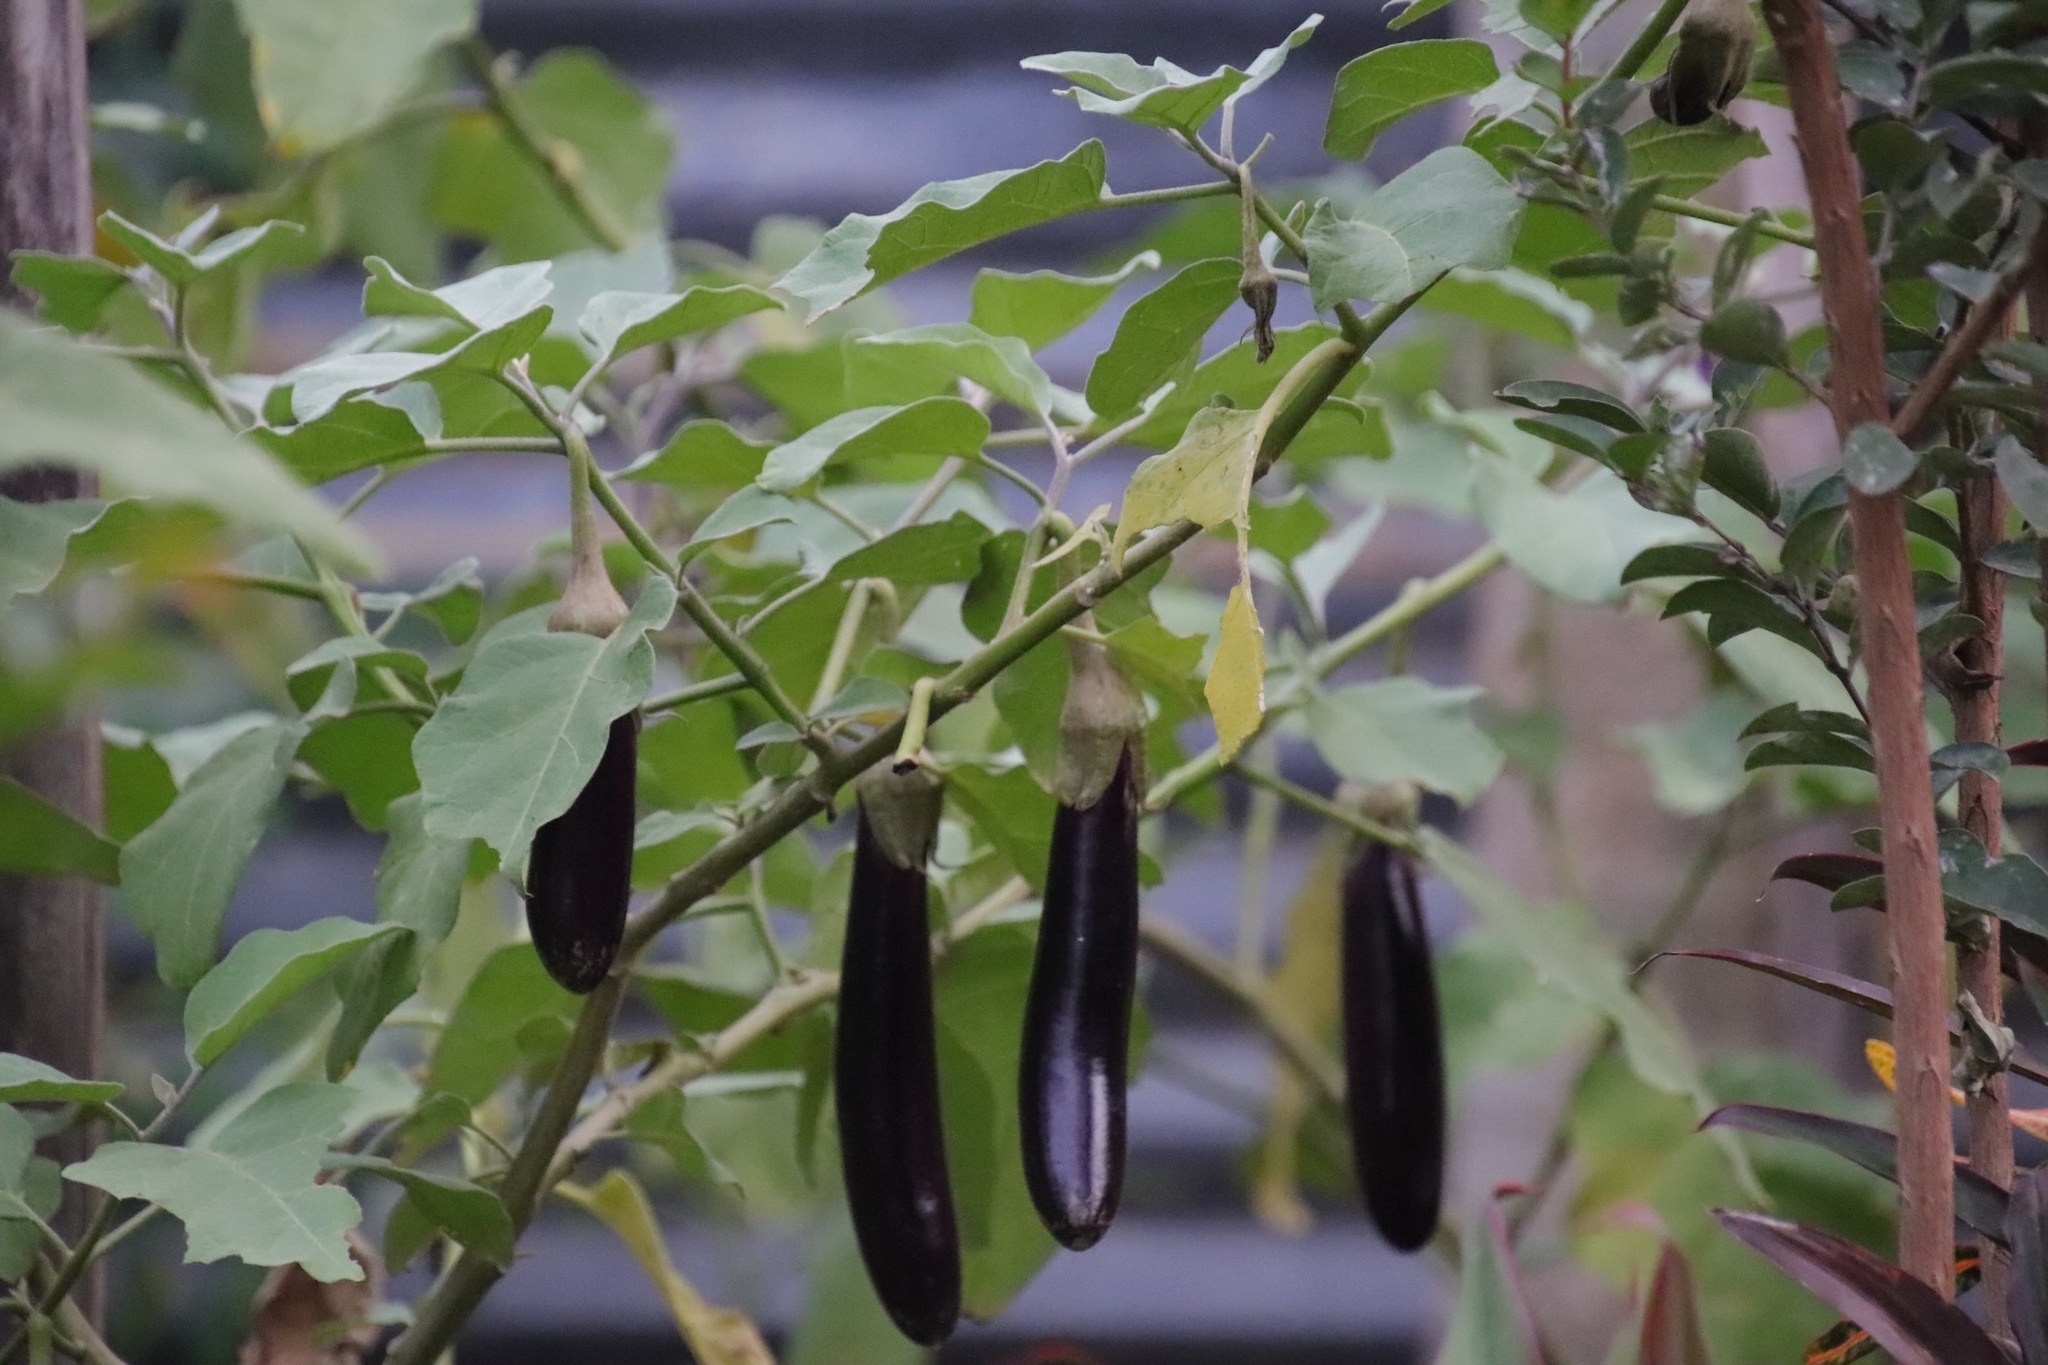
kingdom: Plantae
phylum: Tracheophyta
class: Magnoliopsida
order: Solanales
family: Solanaceae
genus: Solanum
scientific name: Solanum melongena
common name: Eggplant
